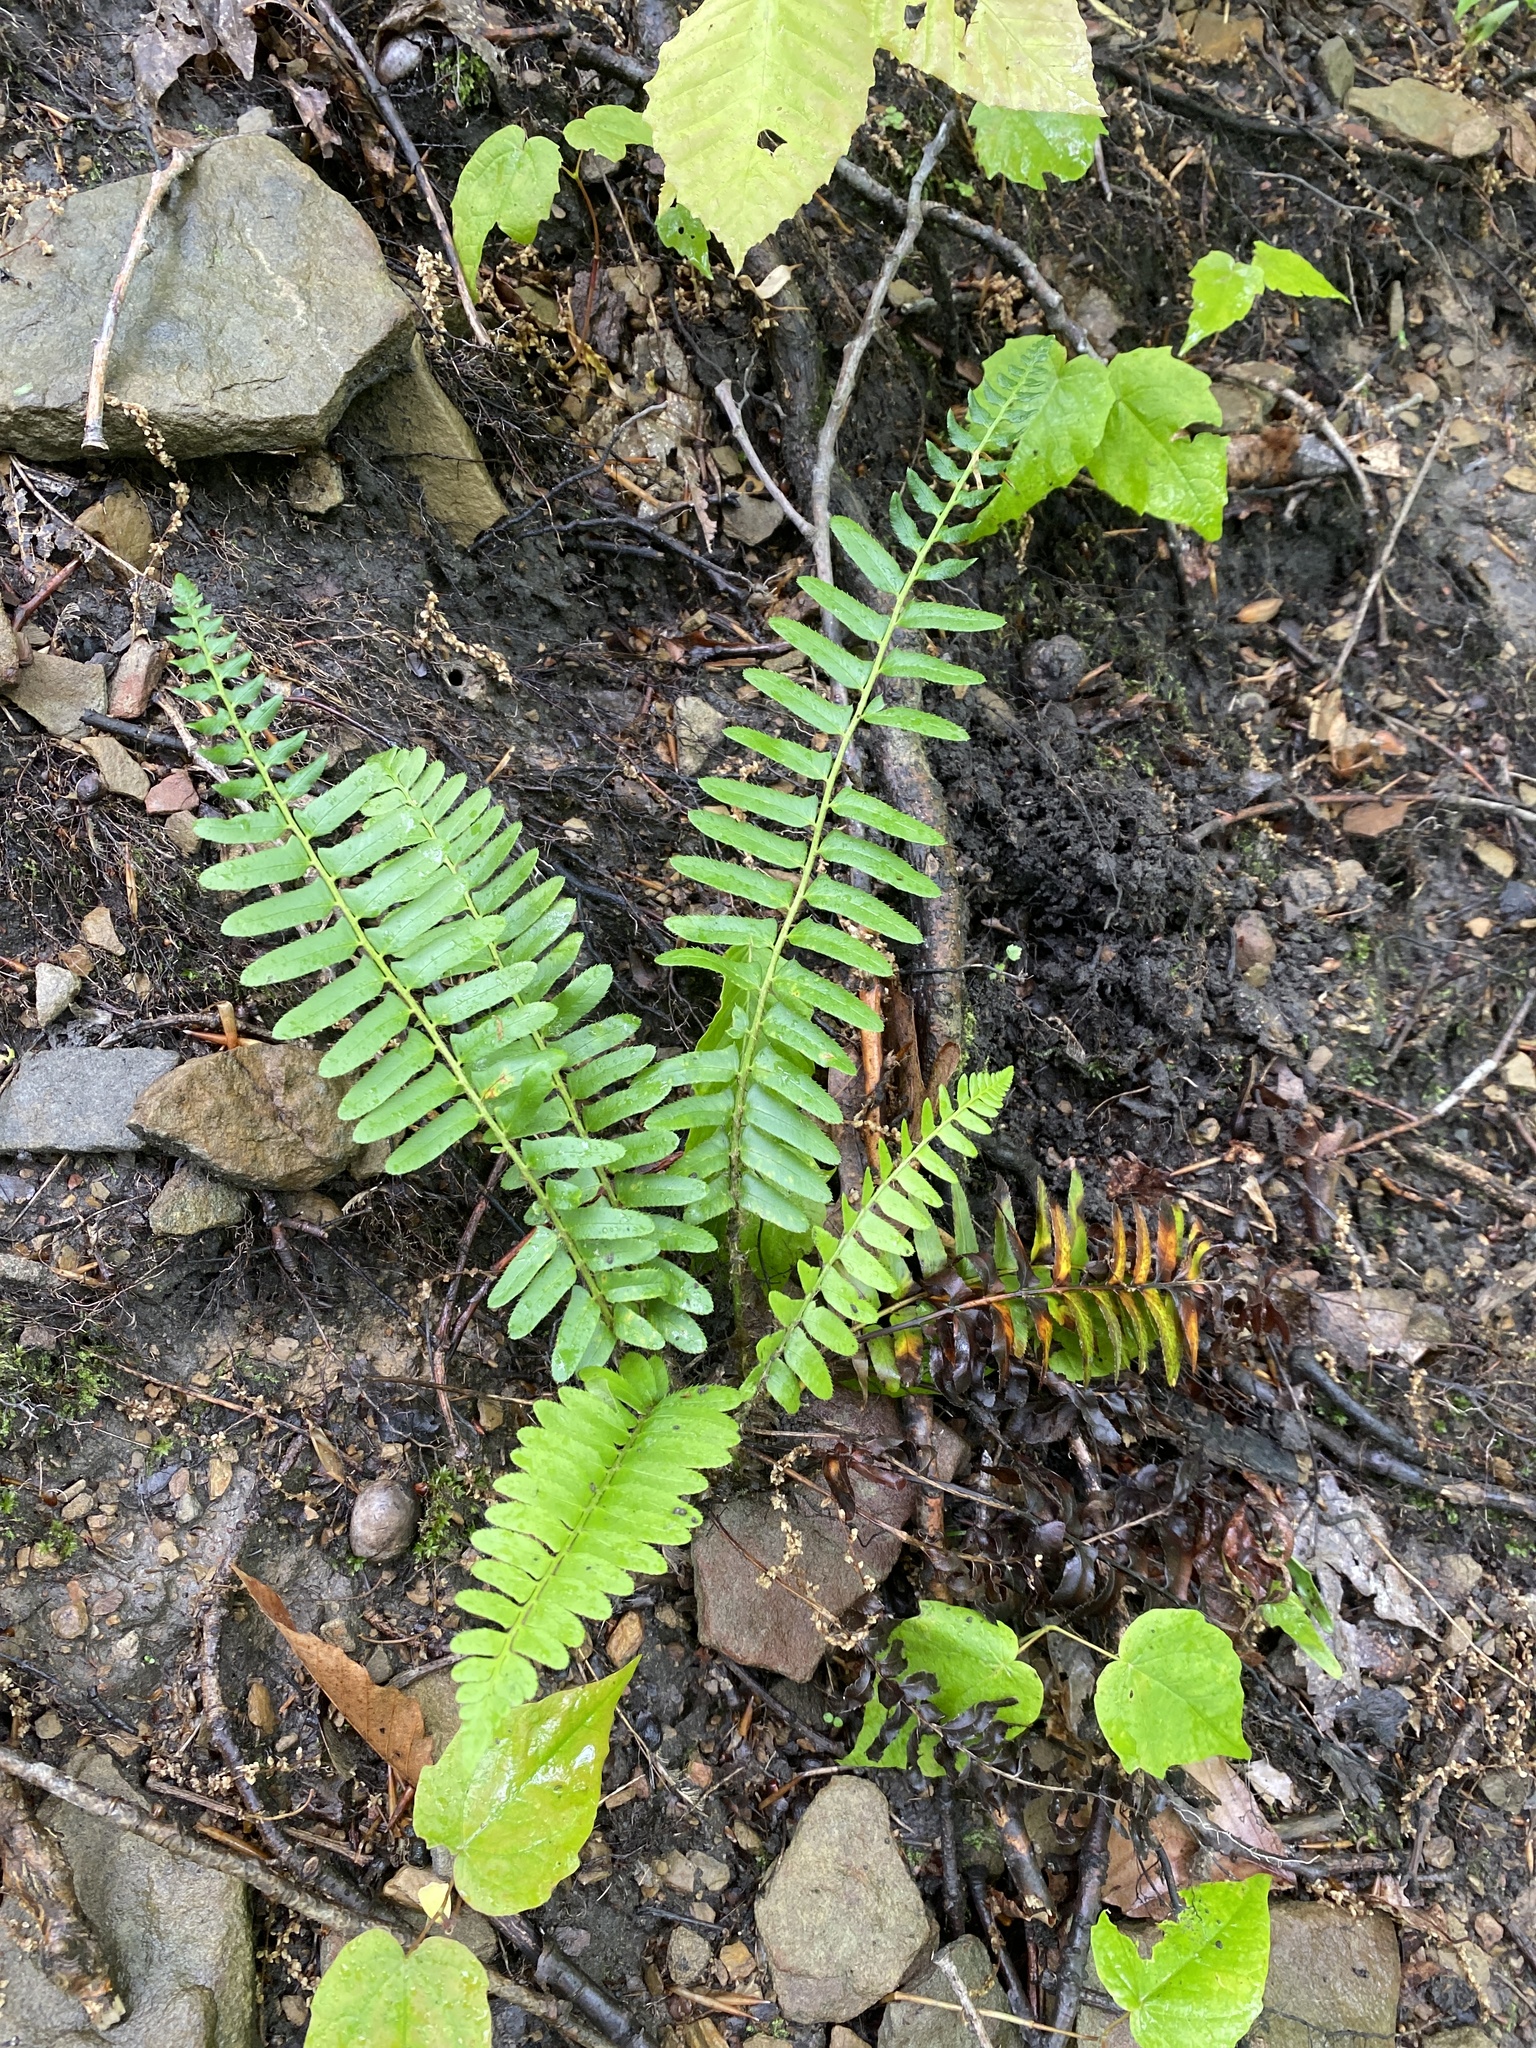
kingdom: Plantae
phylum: Tracheophyta
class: Polypodiopsida
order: Polypodiales
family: Dryopteridaceae
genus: Polystichum
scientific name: Polystichum acrostichoides
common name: Christmas fern
